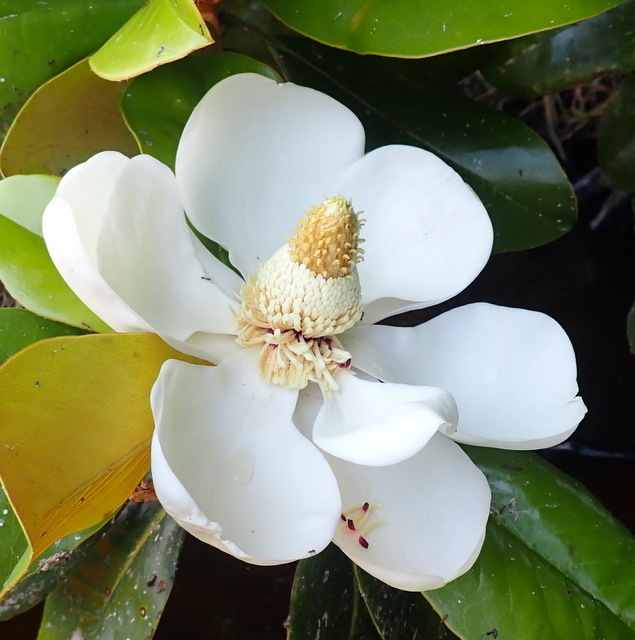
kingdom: Plantae
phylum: Tracheophyta
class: Magnoliopsida
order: Magnoliales
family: Magnoliaceae
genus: Magnolia
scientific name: Magnolia grandiflora
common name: Southern magnolia
